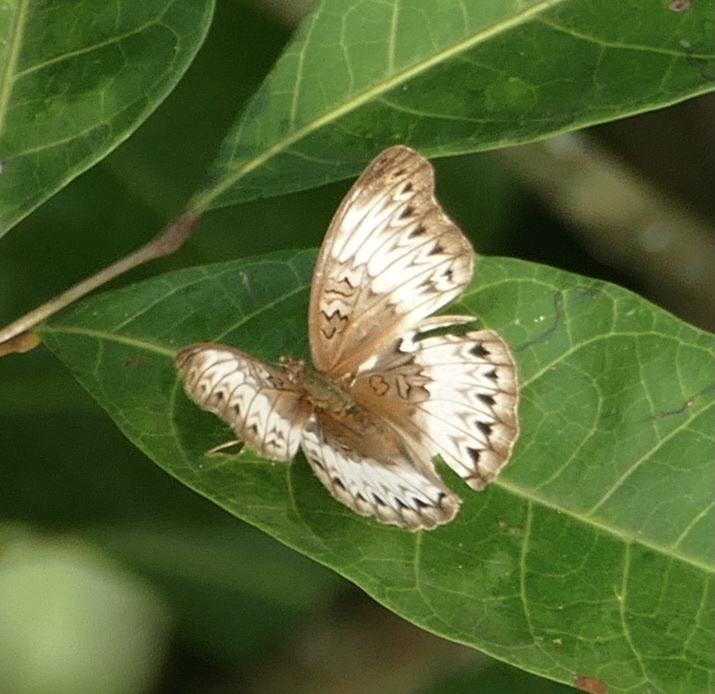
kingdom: Animalia
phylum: Arthropoda
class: Insecta
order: Lepidoptera
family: Nymphalidae
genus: Cymothoe
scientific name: Cymothoe mabillei
